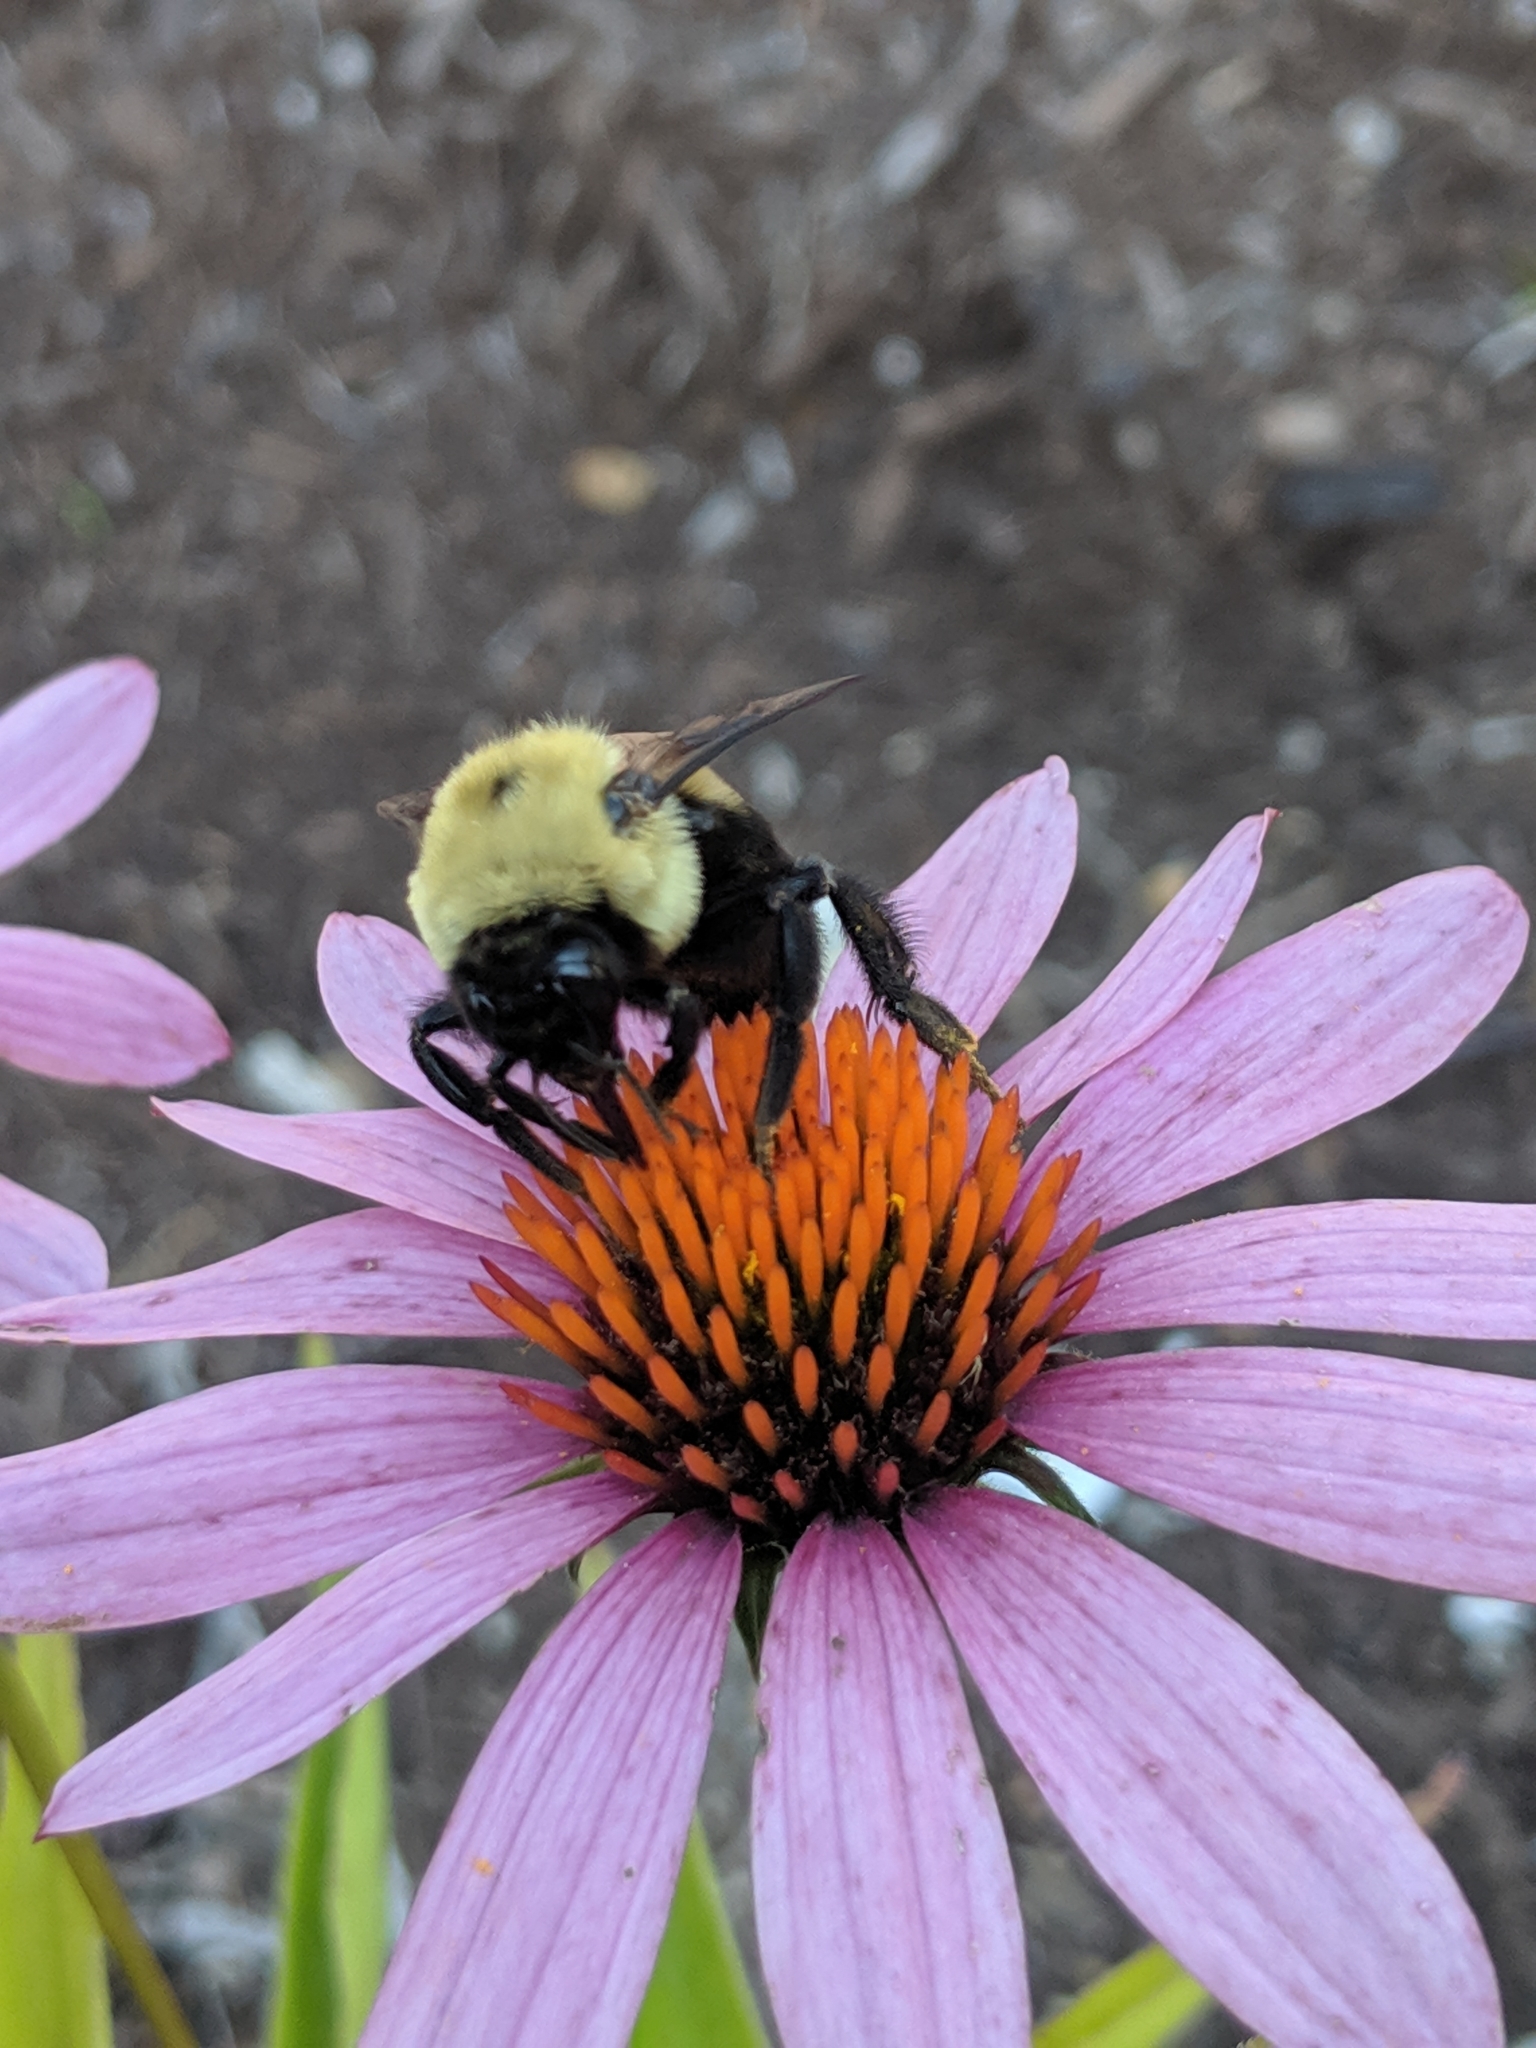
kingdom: Animalia
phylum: Arthropoda
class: Insecta
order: Hymenoptera
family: Apidae
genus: Bombus
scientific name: Bombus griseocollis
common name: Brown-belted bumble bee
